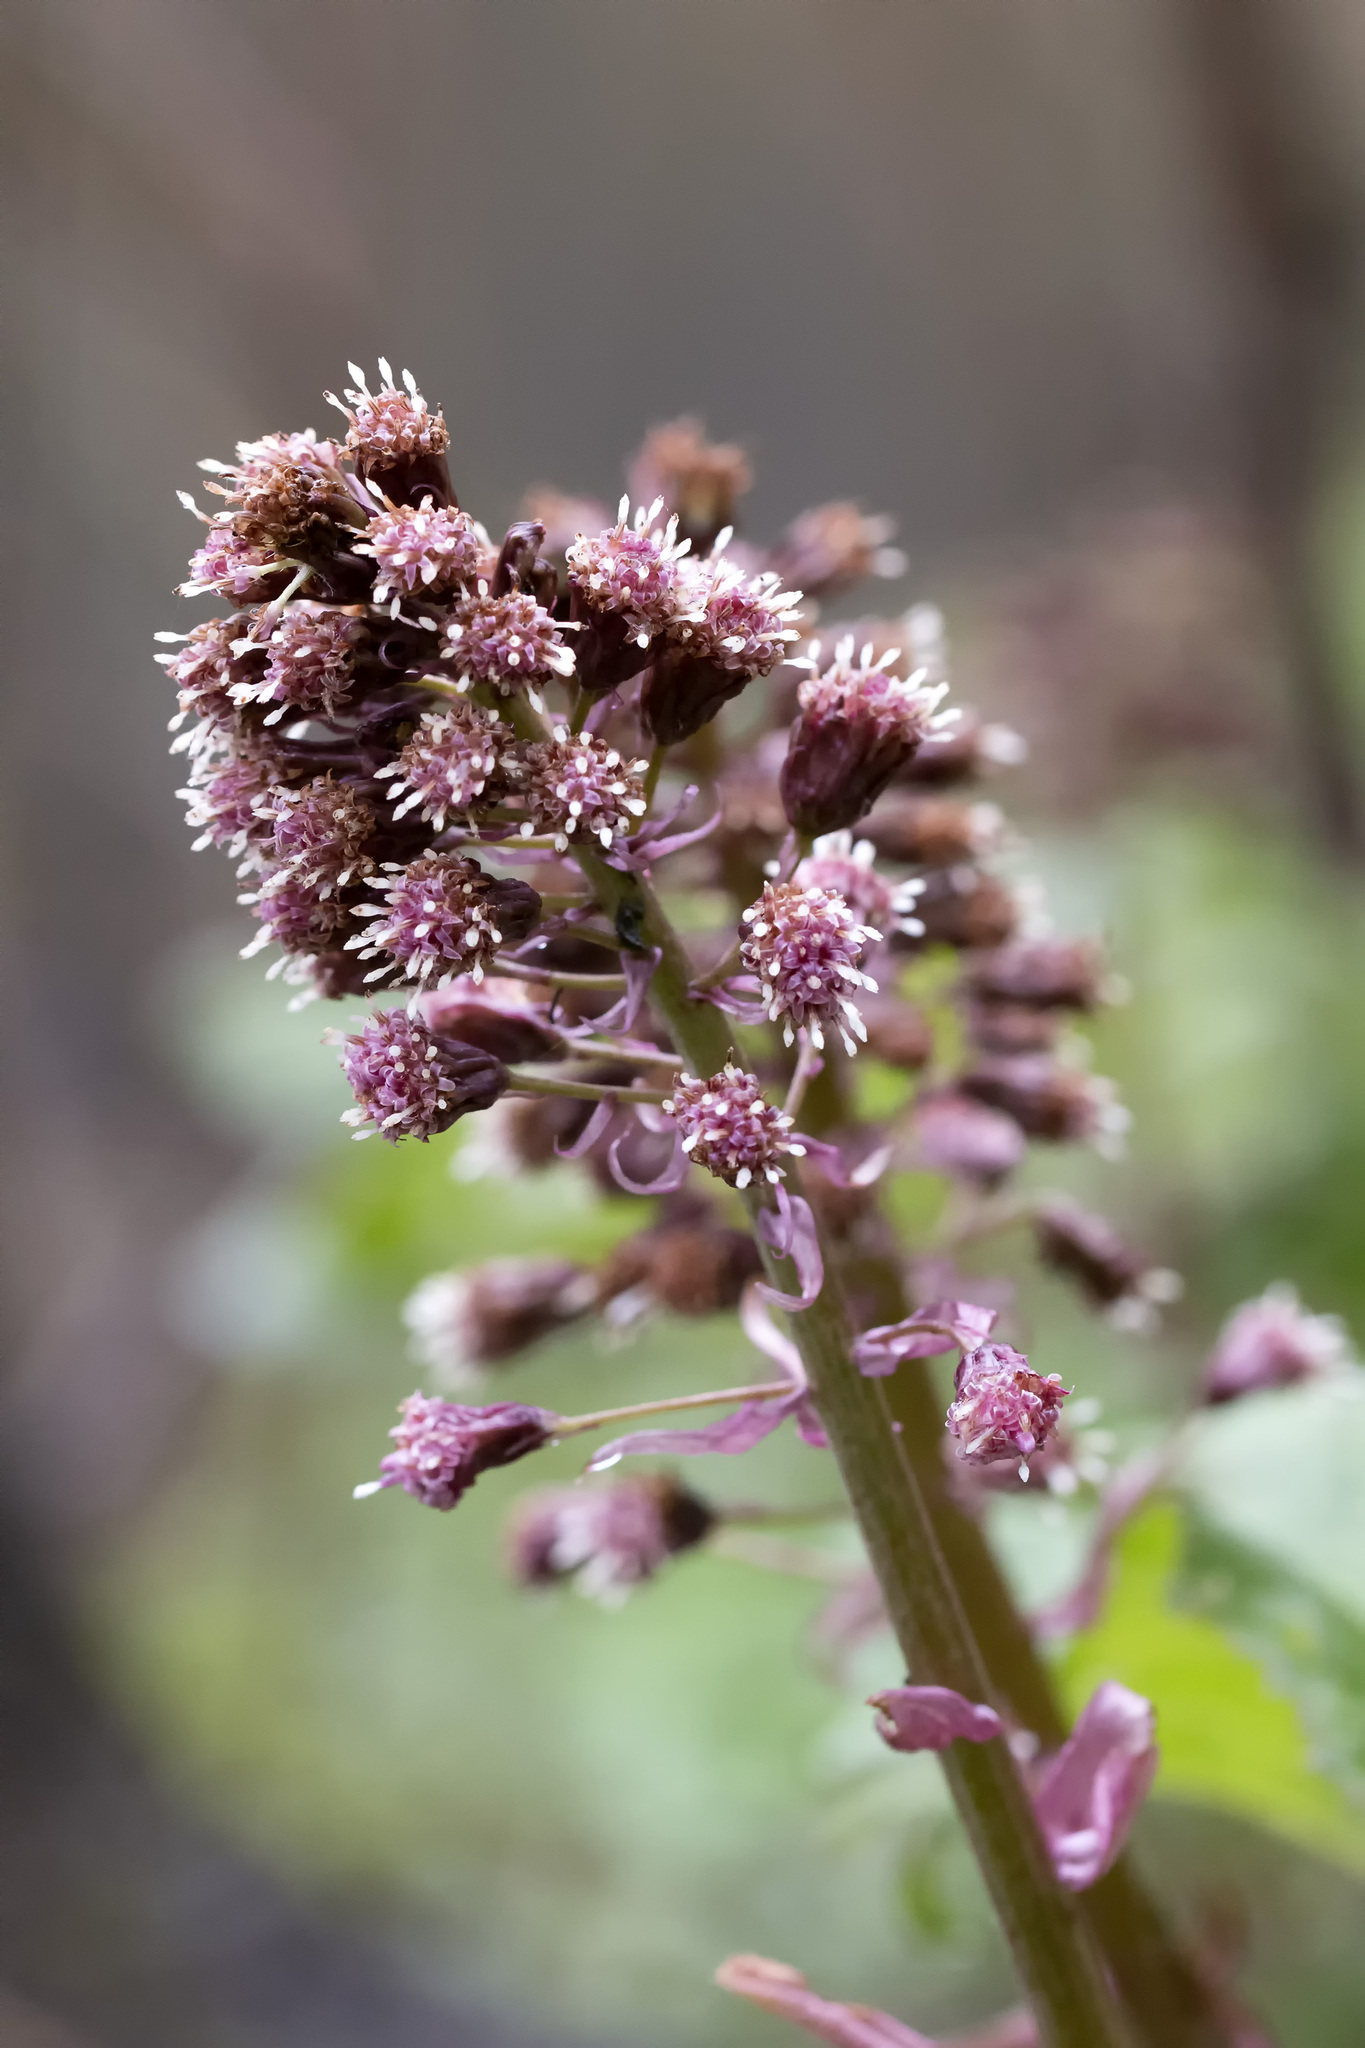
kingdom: Plantae
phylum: Tracheophyta
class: Magnoliopsida
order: Asterales
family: Asteraceae
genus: Petasites
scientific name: Petasites hybridus
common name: Butterbur
